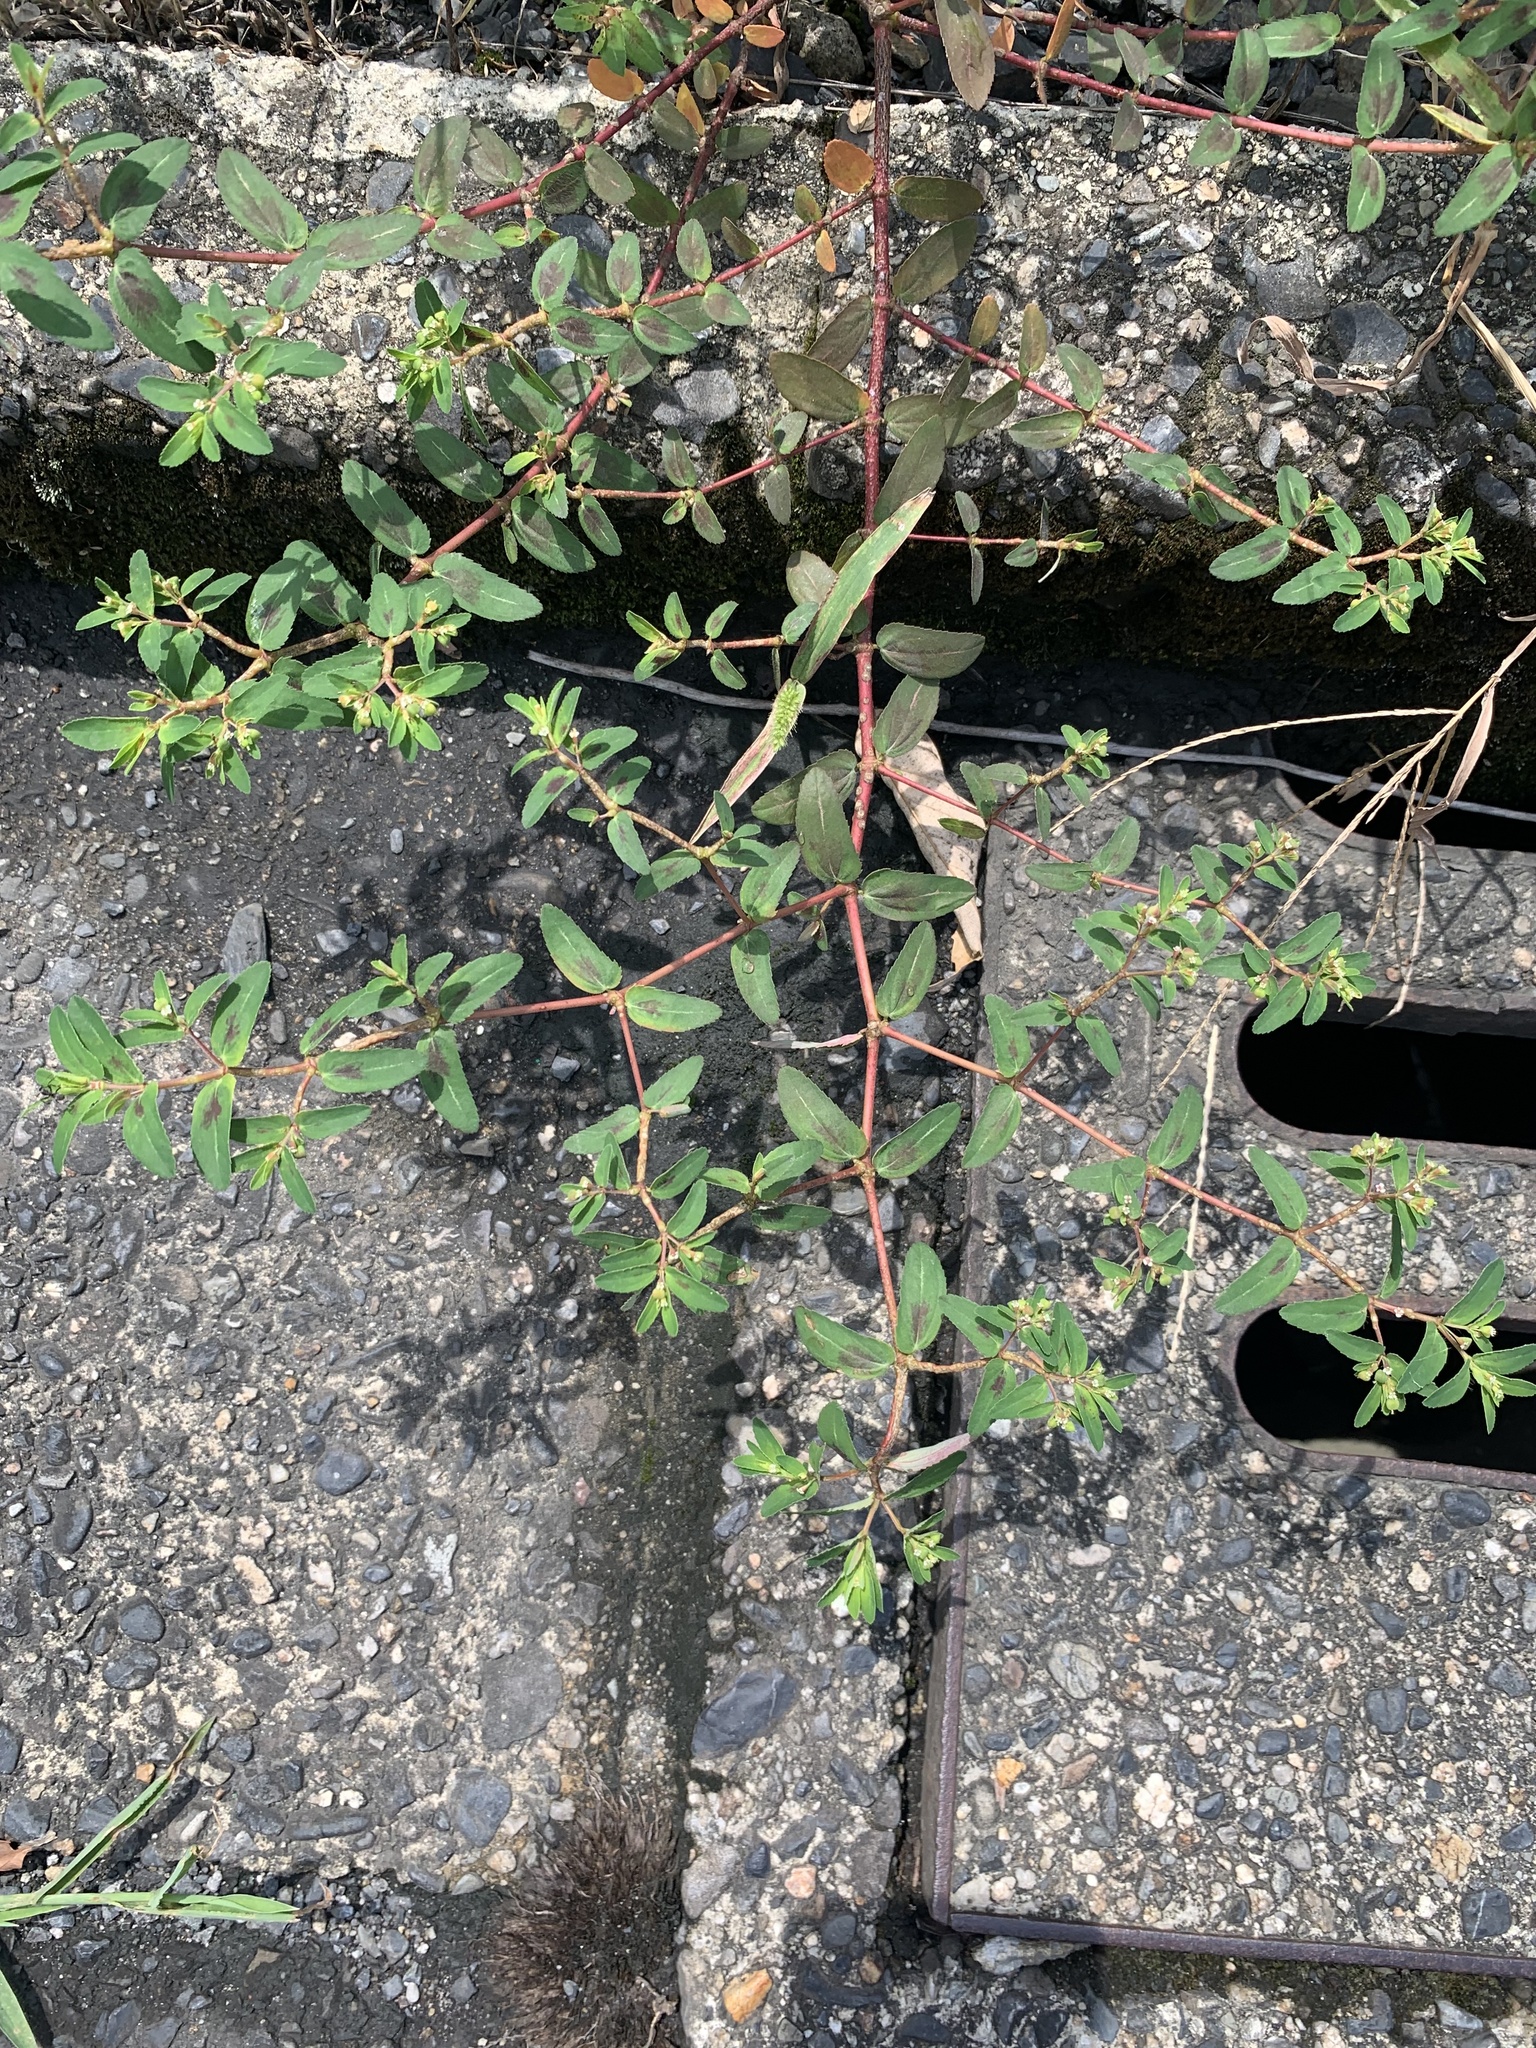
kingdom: Plantae
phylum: Tracheophyta
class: Magnoliopsida
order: Malpighiales
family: Euphorbiaceae
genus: Euphorbia
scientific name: Euphorbia nutans
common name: Eyebane
